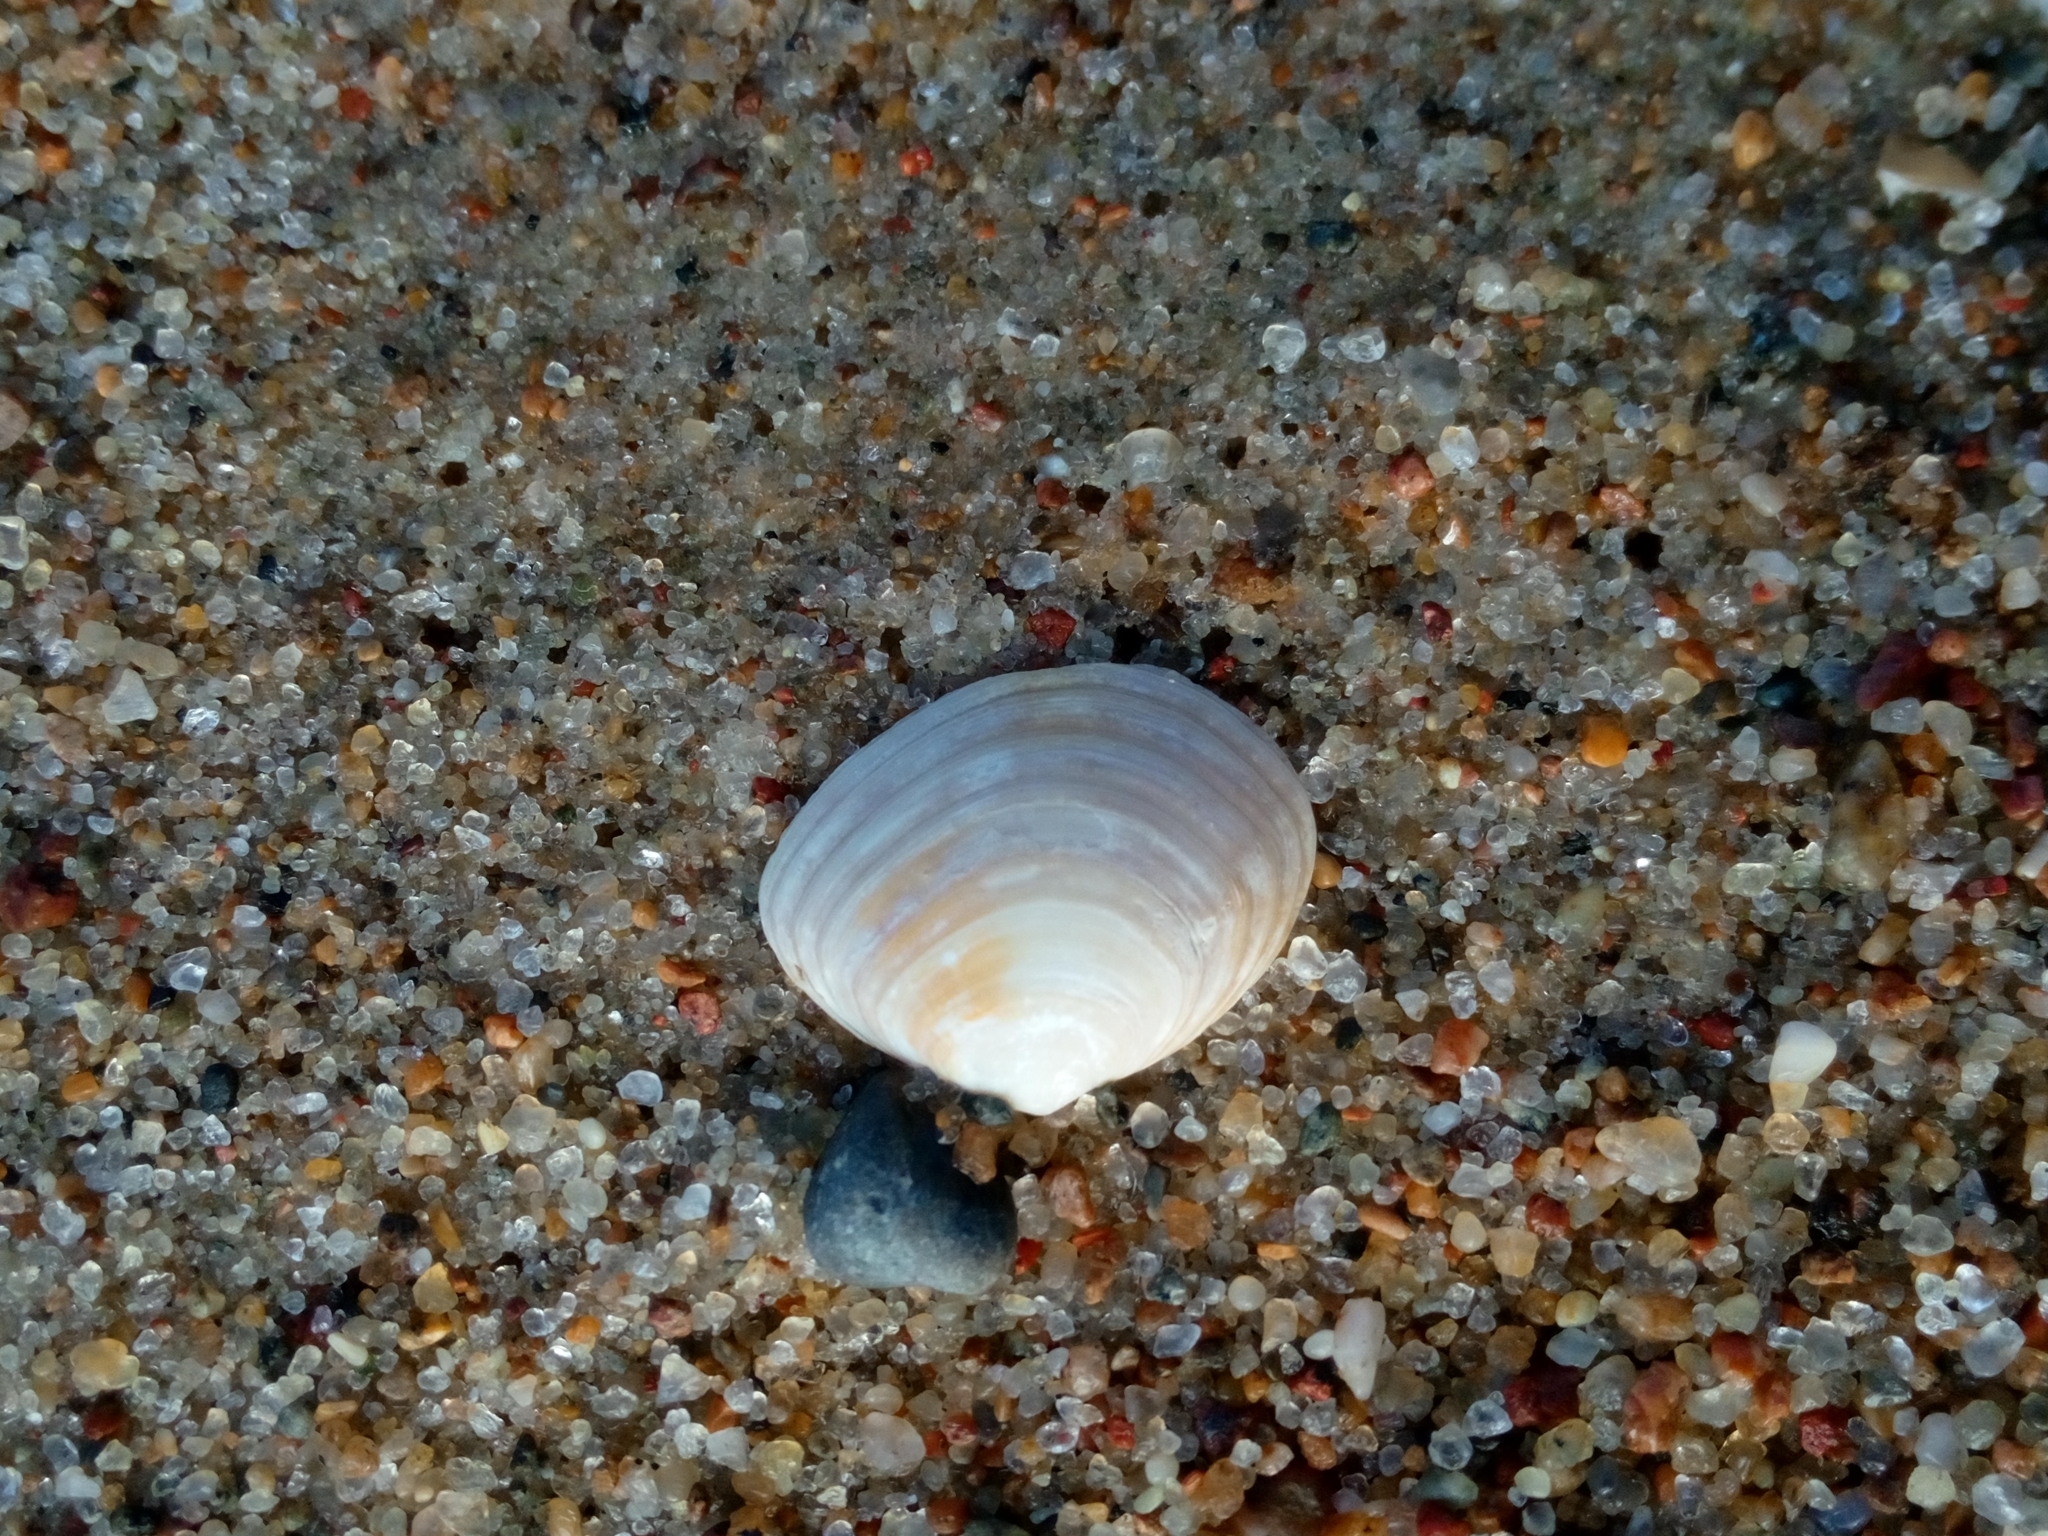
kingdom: Animalia
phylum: Mollusca
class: Bivalvia
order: Cardiida
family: Tellinidae
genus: Macoma
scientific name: Macoma balthica
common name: Baltic tellin
